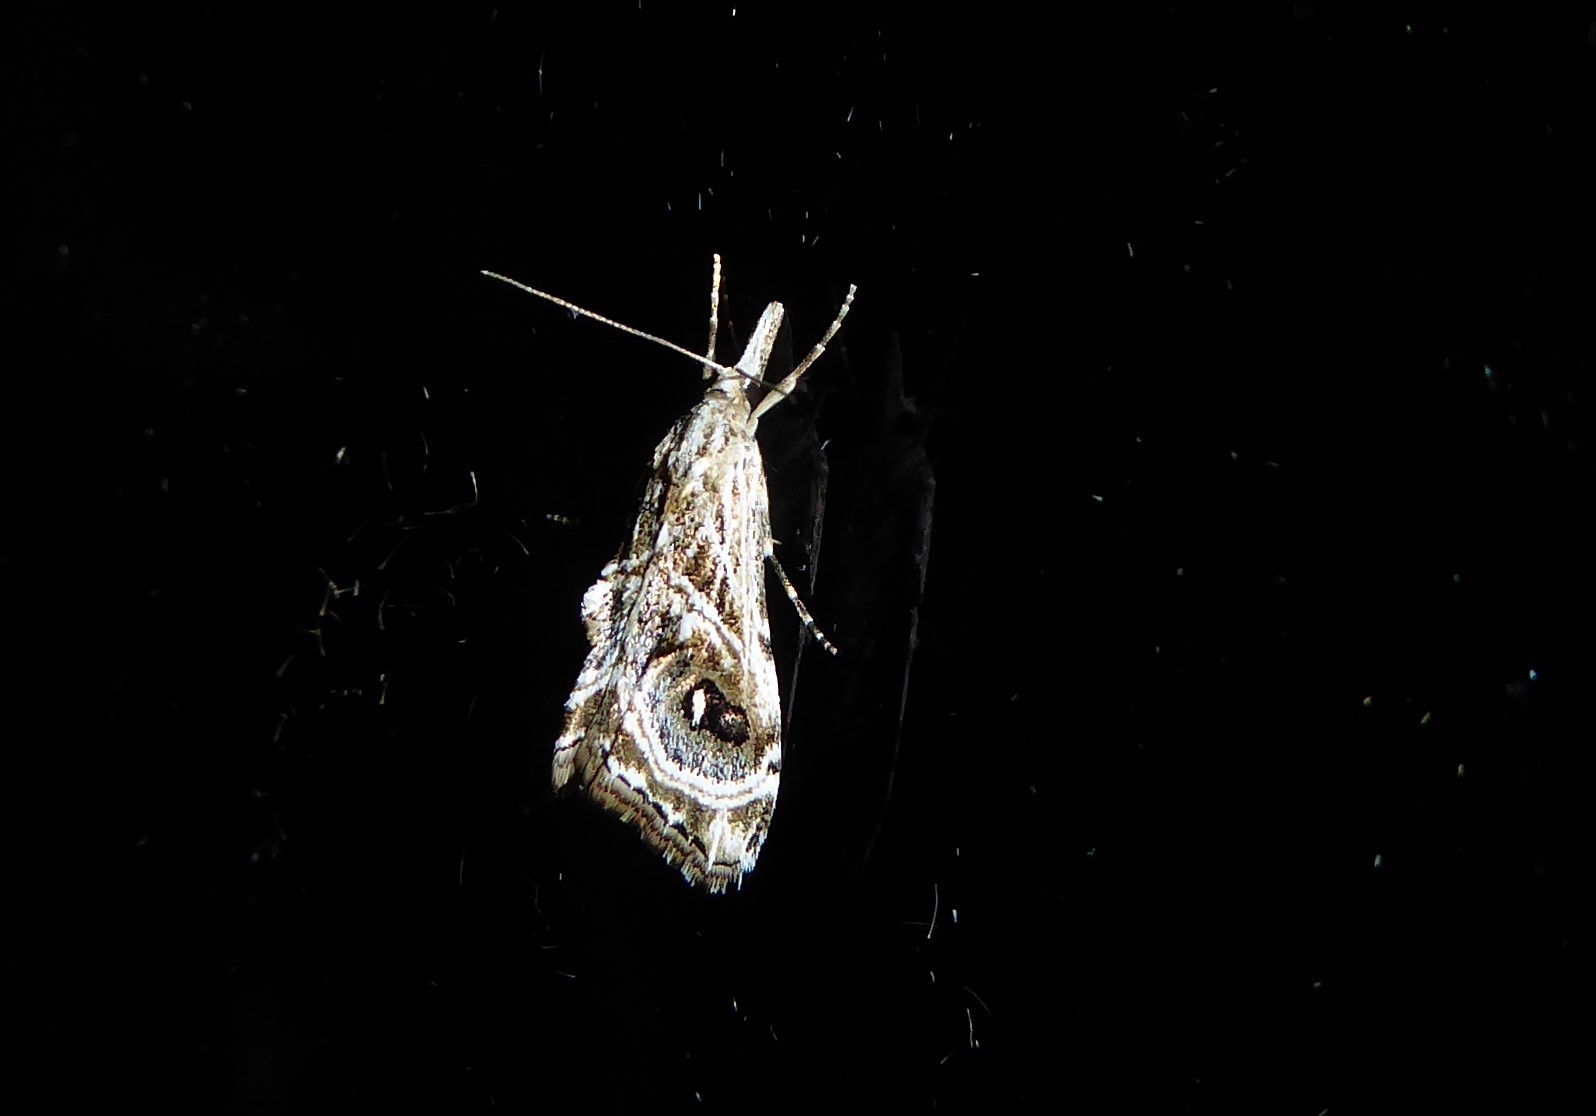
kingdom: Animalia
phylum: Arthropoda
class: Insecta
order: Lepidoptera
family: Crambidae
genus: Gadira
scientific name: Gadira acerella
